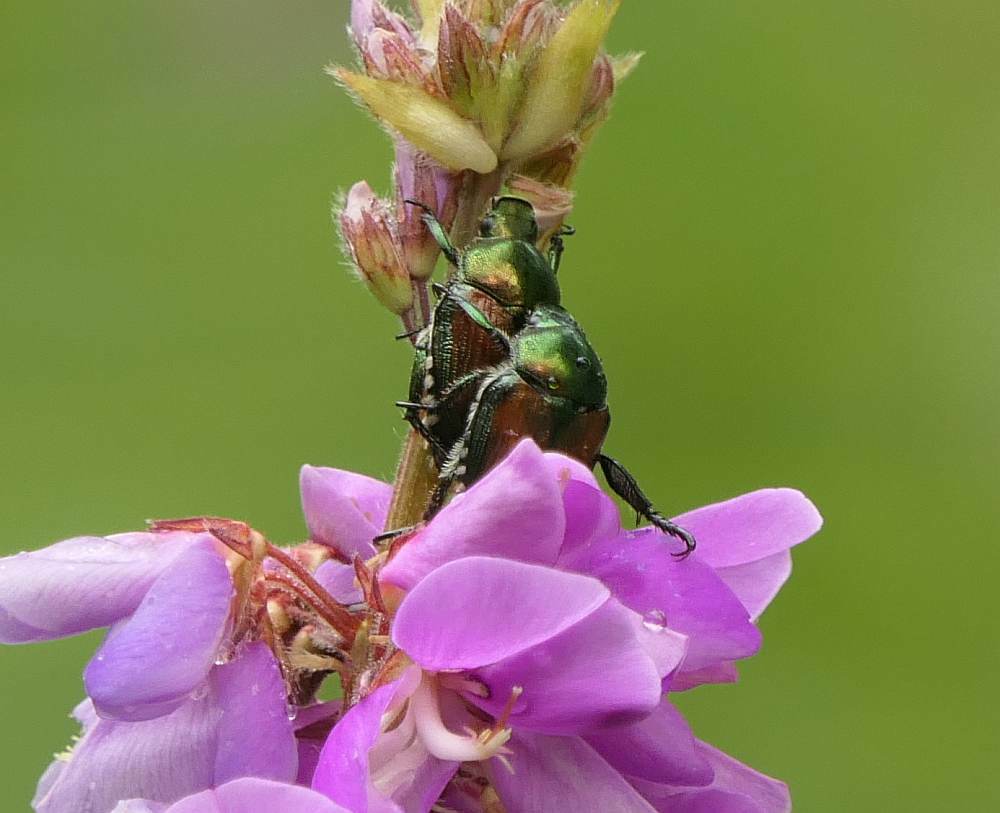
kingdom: Animalia
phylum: Arthropoda
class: Insecta
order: Coleoptera
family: Scarabaeidae
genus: Popillia
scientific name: Popillia japonica
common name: Japanese beetle
